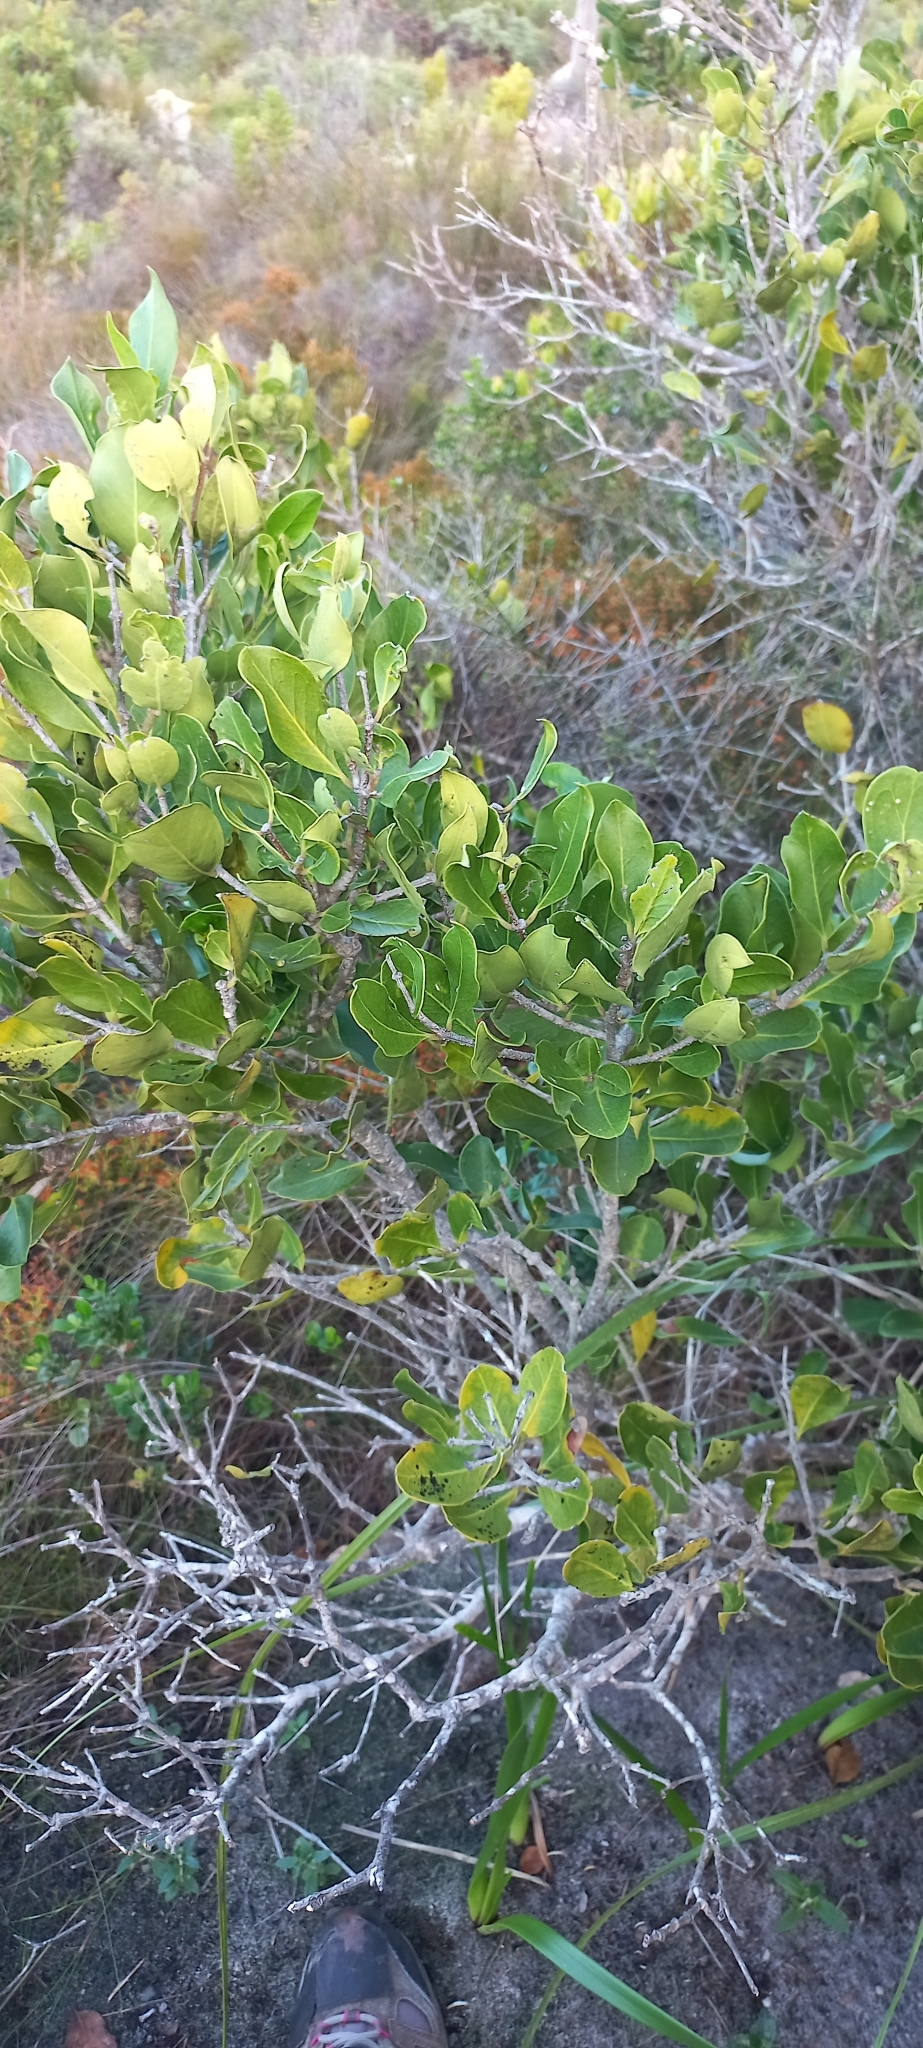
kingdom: Plantae
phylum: Tracheophyta
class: Magnoliopsida
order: Lamiales
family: Oleaceae
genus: Olea
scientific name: Olea capensis
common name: Black ironwood
